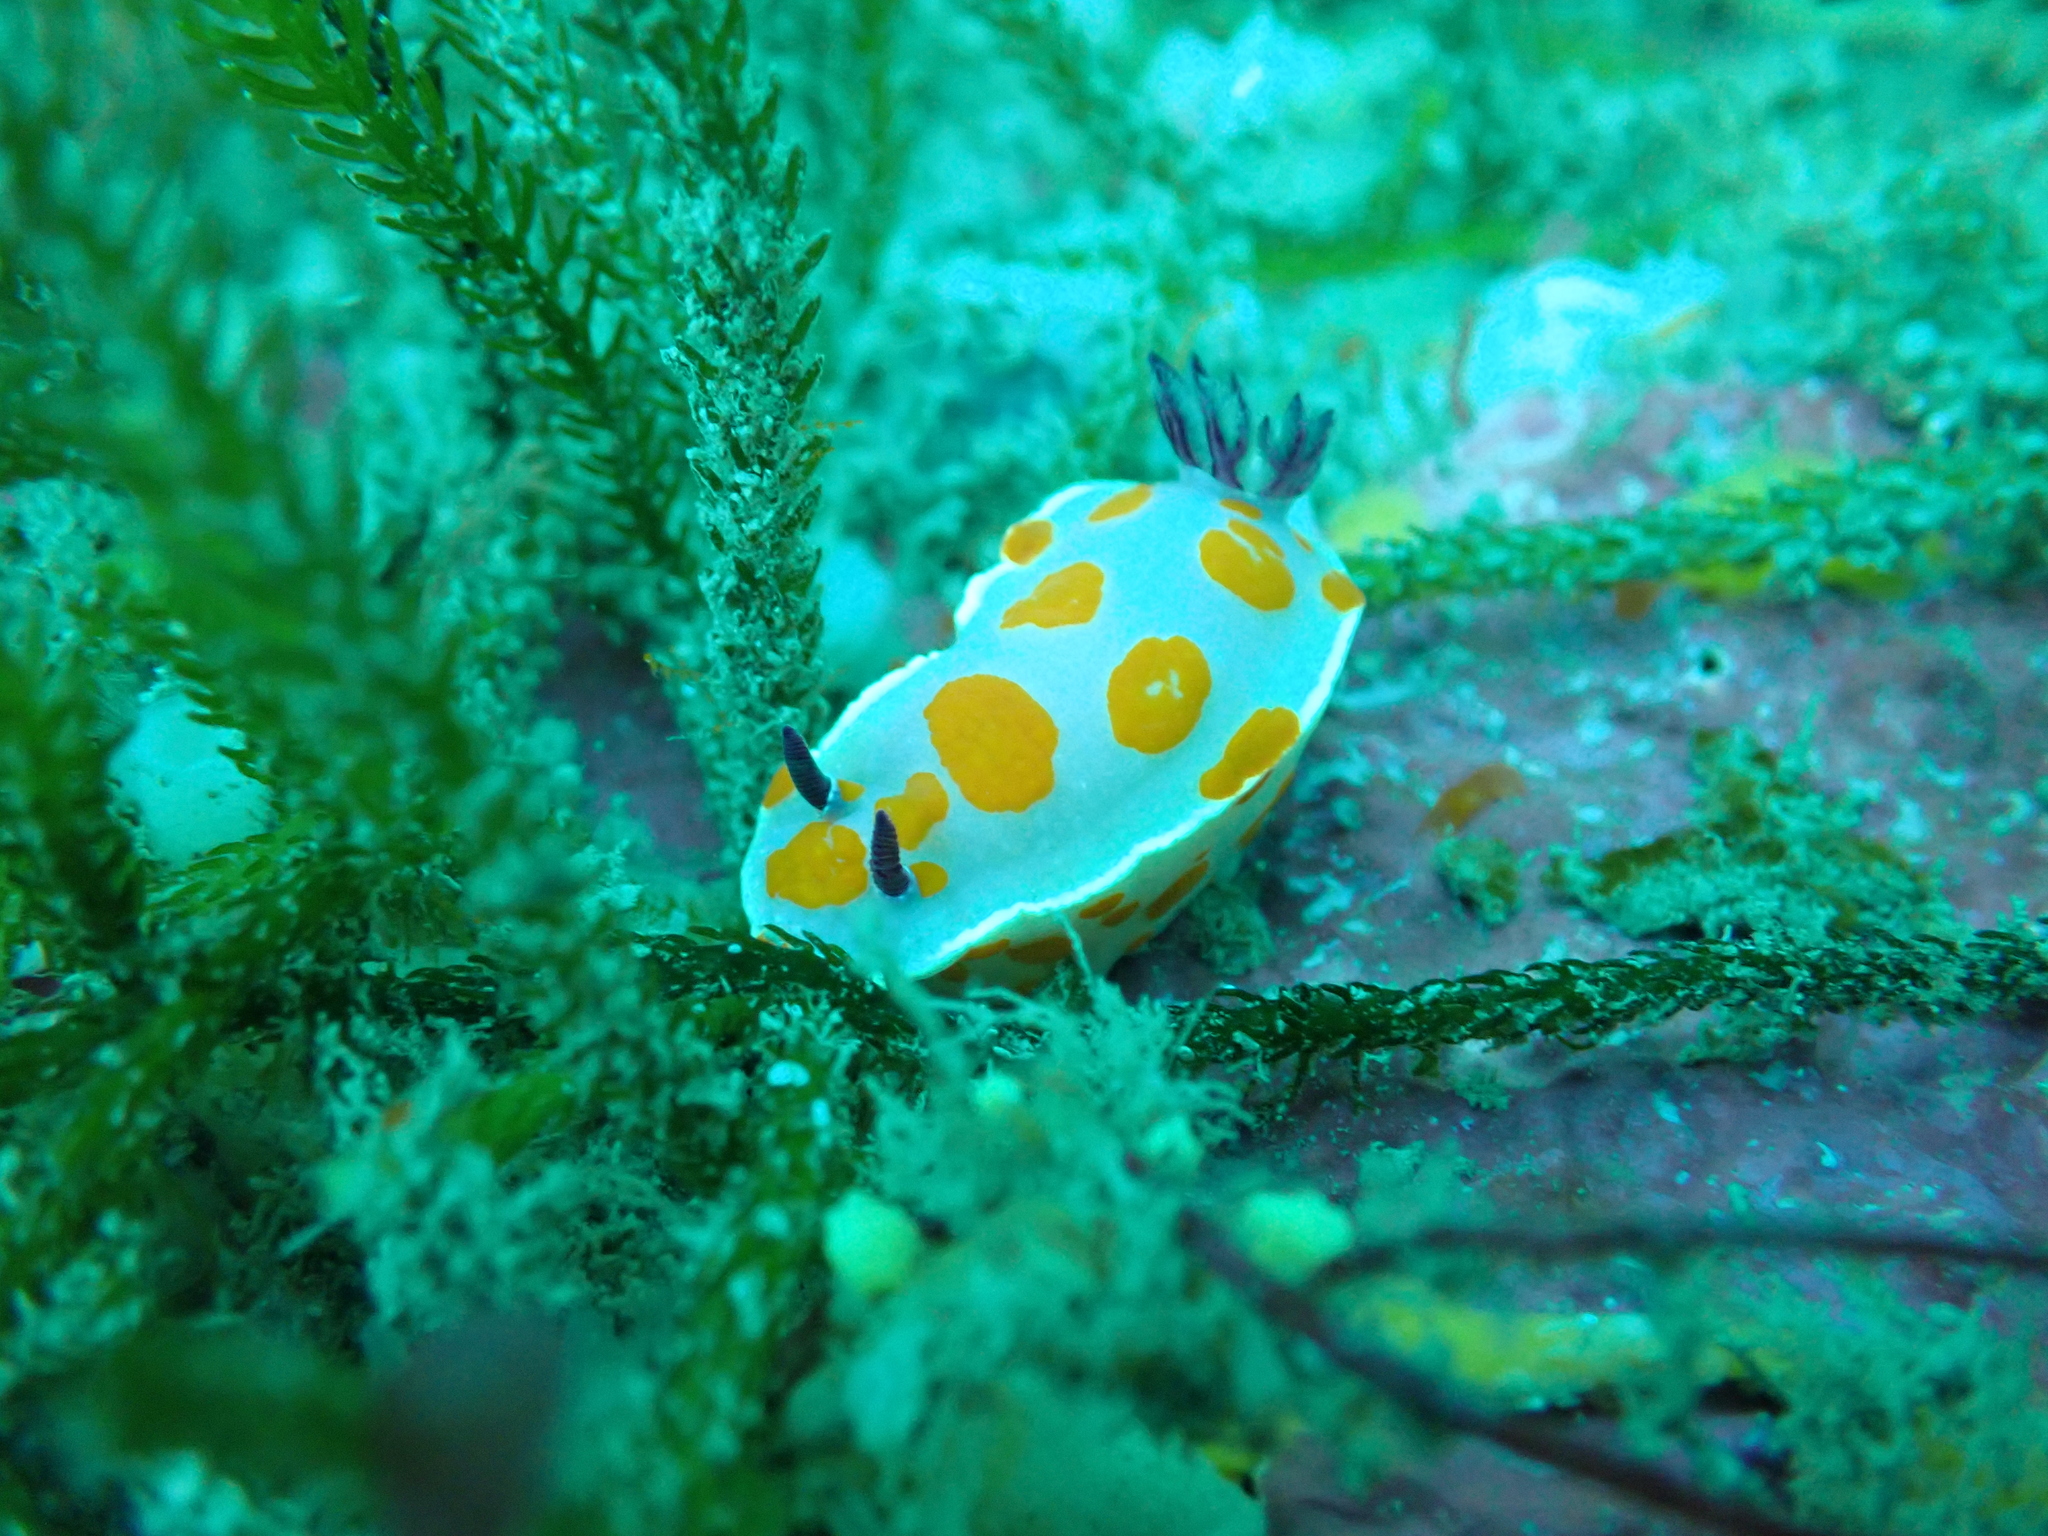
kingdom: Animalia
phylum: Mollusca
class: Gastropoda
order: Nudibranchia
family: Chromodorididae
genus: Ceratosoma
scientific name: Ceratosoma amoenum
